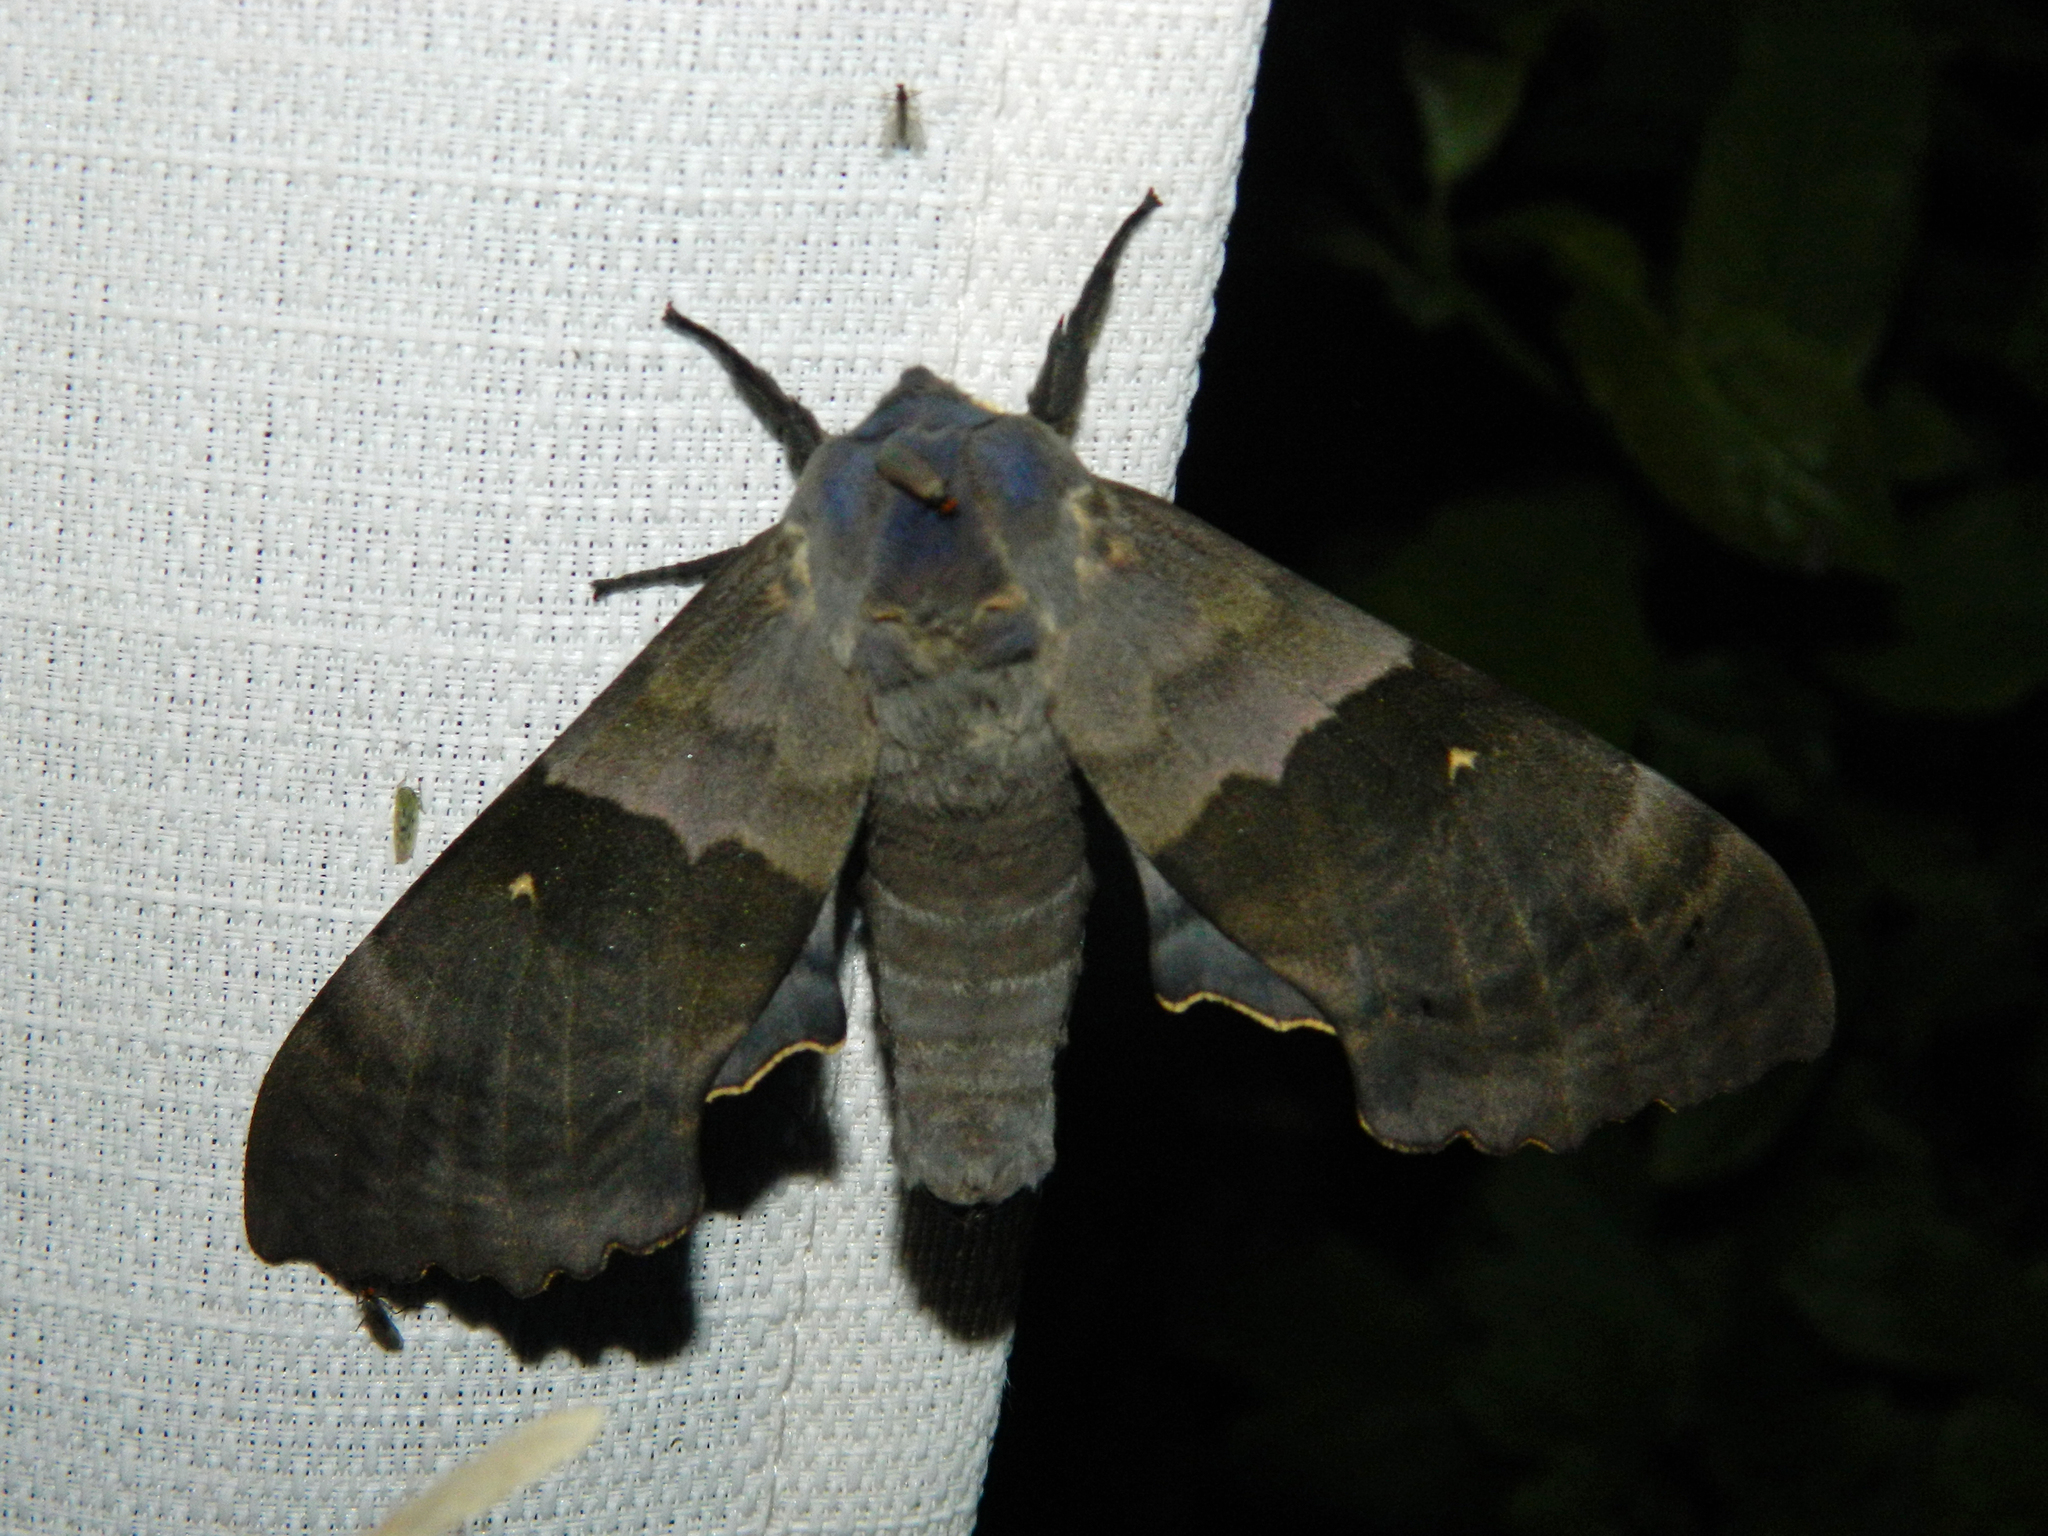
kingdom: Animalia
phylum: Arthropoda
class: Insecta
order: Lepidoptera
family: Sphingidae
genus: Pachysphinx
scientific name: Pachysphinx modesta
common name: Big poplar sphinx
